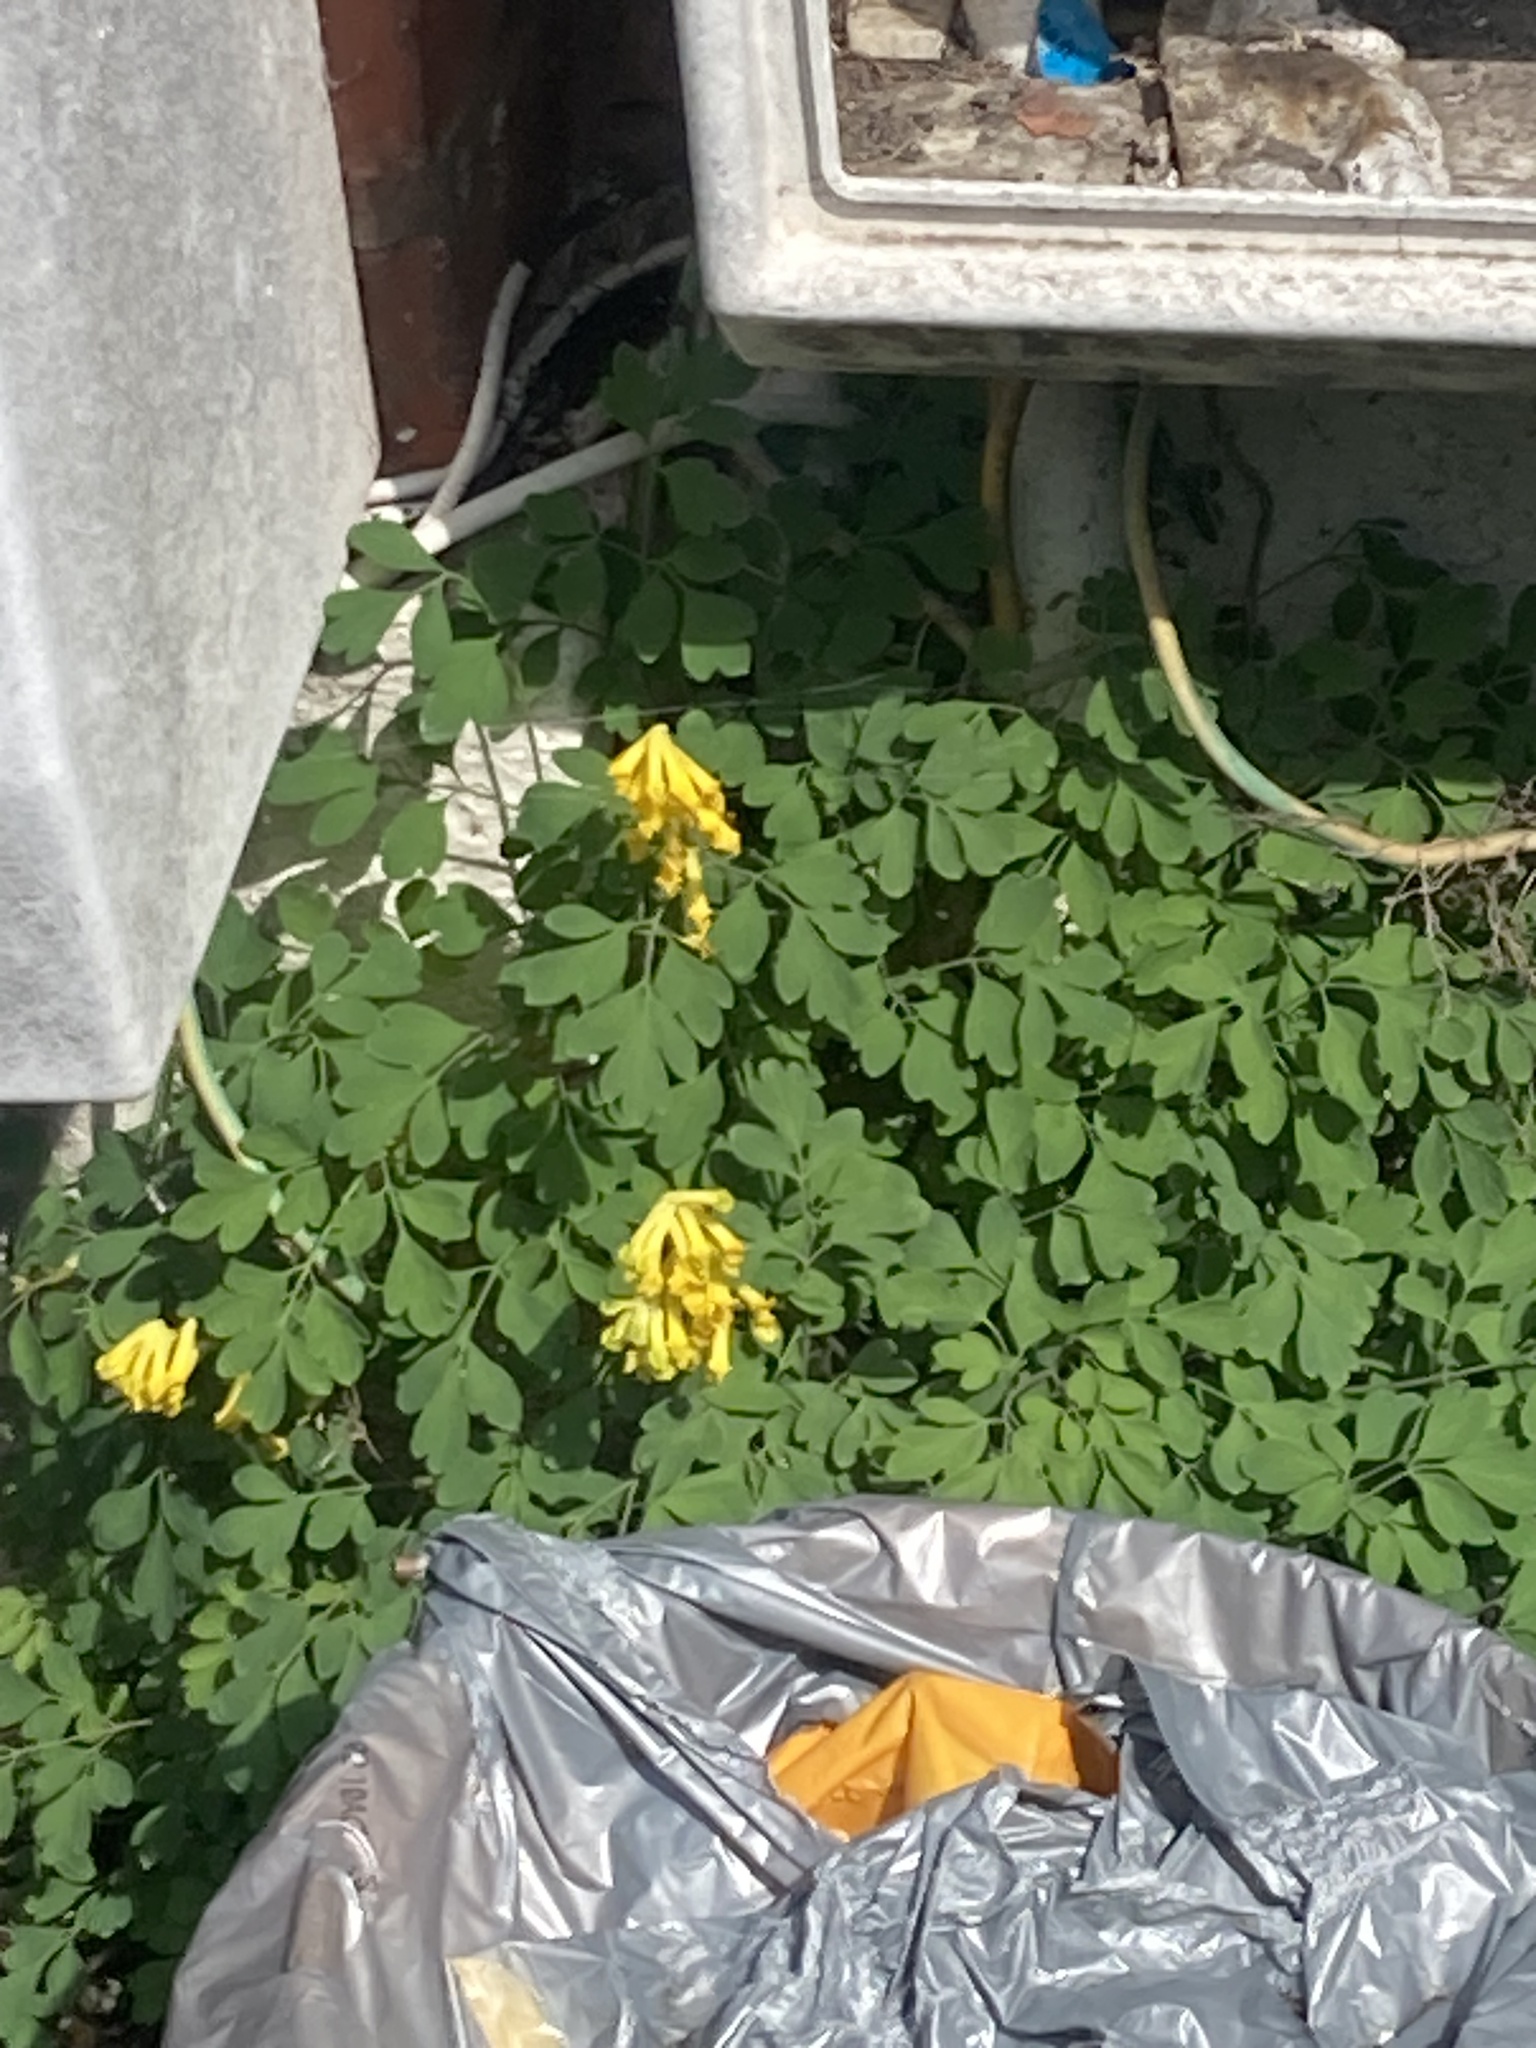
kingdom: Plantae
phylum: Tracheophyta
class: Magnoliopsida
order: Ranunculales
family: Papaveraceae
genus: Pseudofumaria
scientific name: Pseudofumaria lutea
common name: Yellow corydalis
